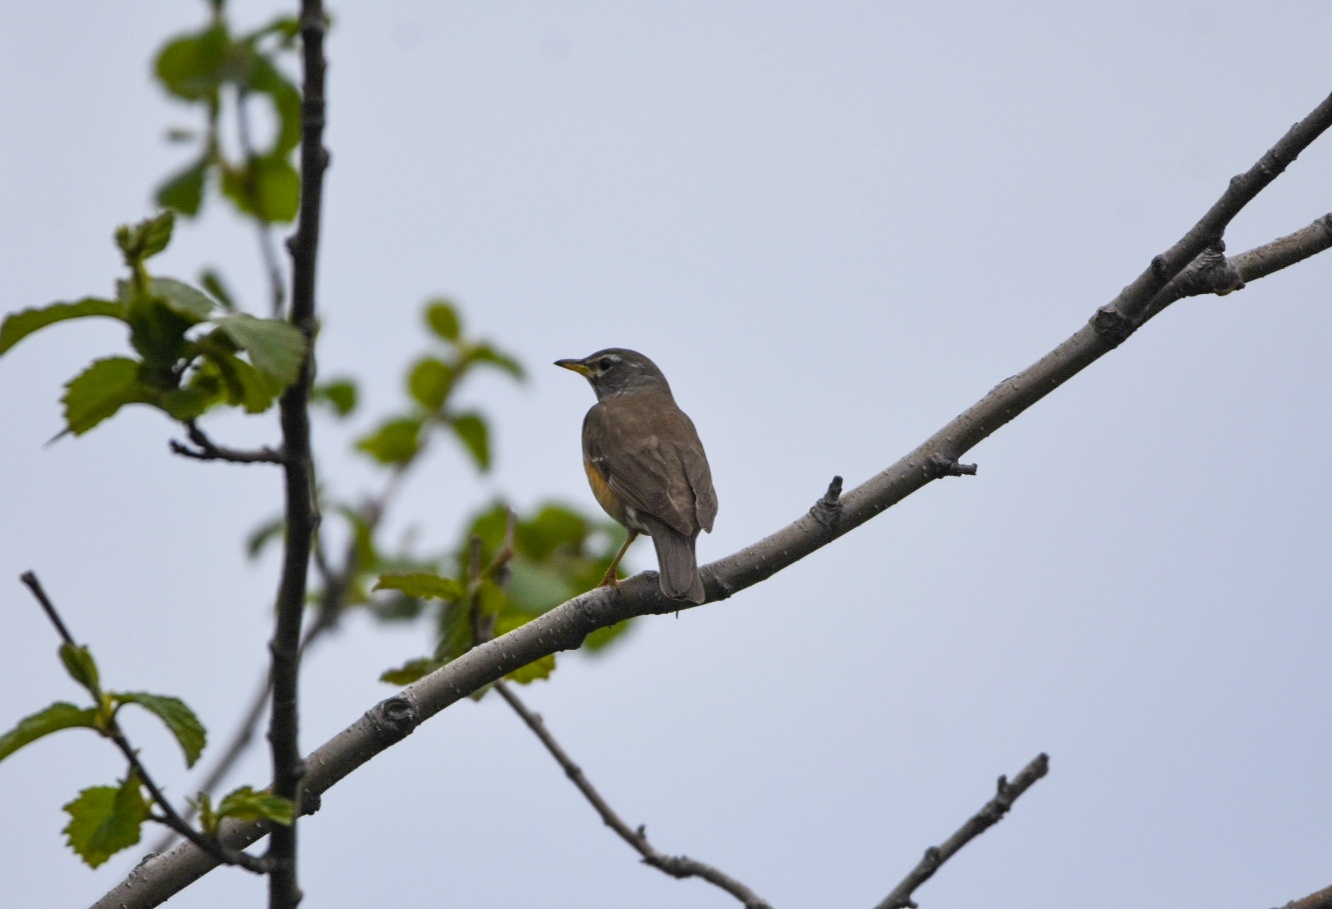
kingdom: Animalia
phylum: Chordata
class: Aves
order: Passeriformes
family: Turdidae
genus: Turdus
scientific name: Turdus obscurus
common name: Eyebrowed thrush
